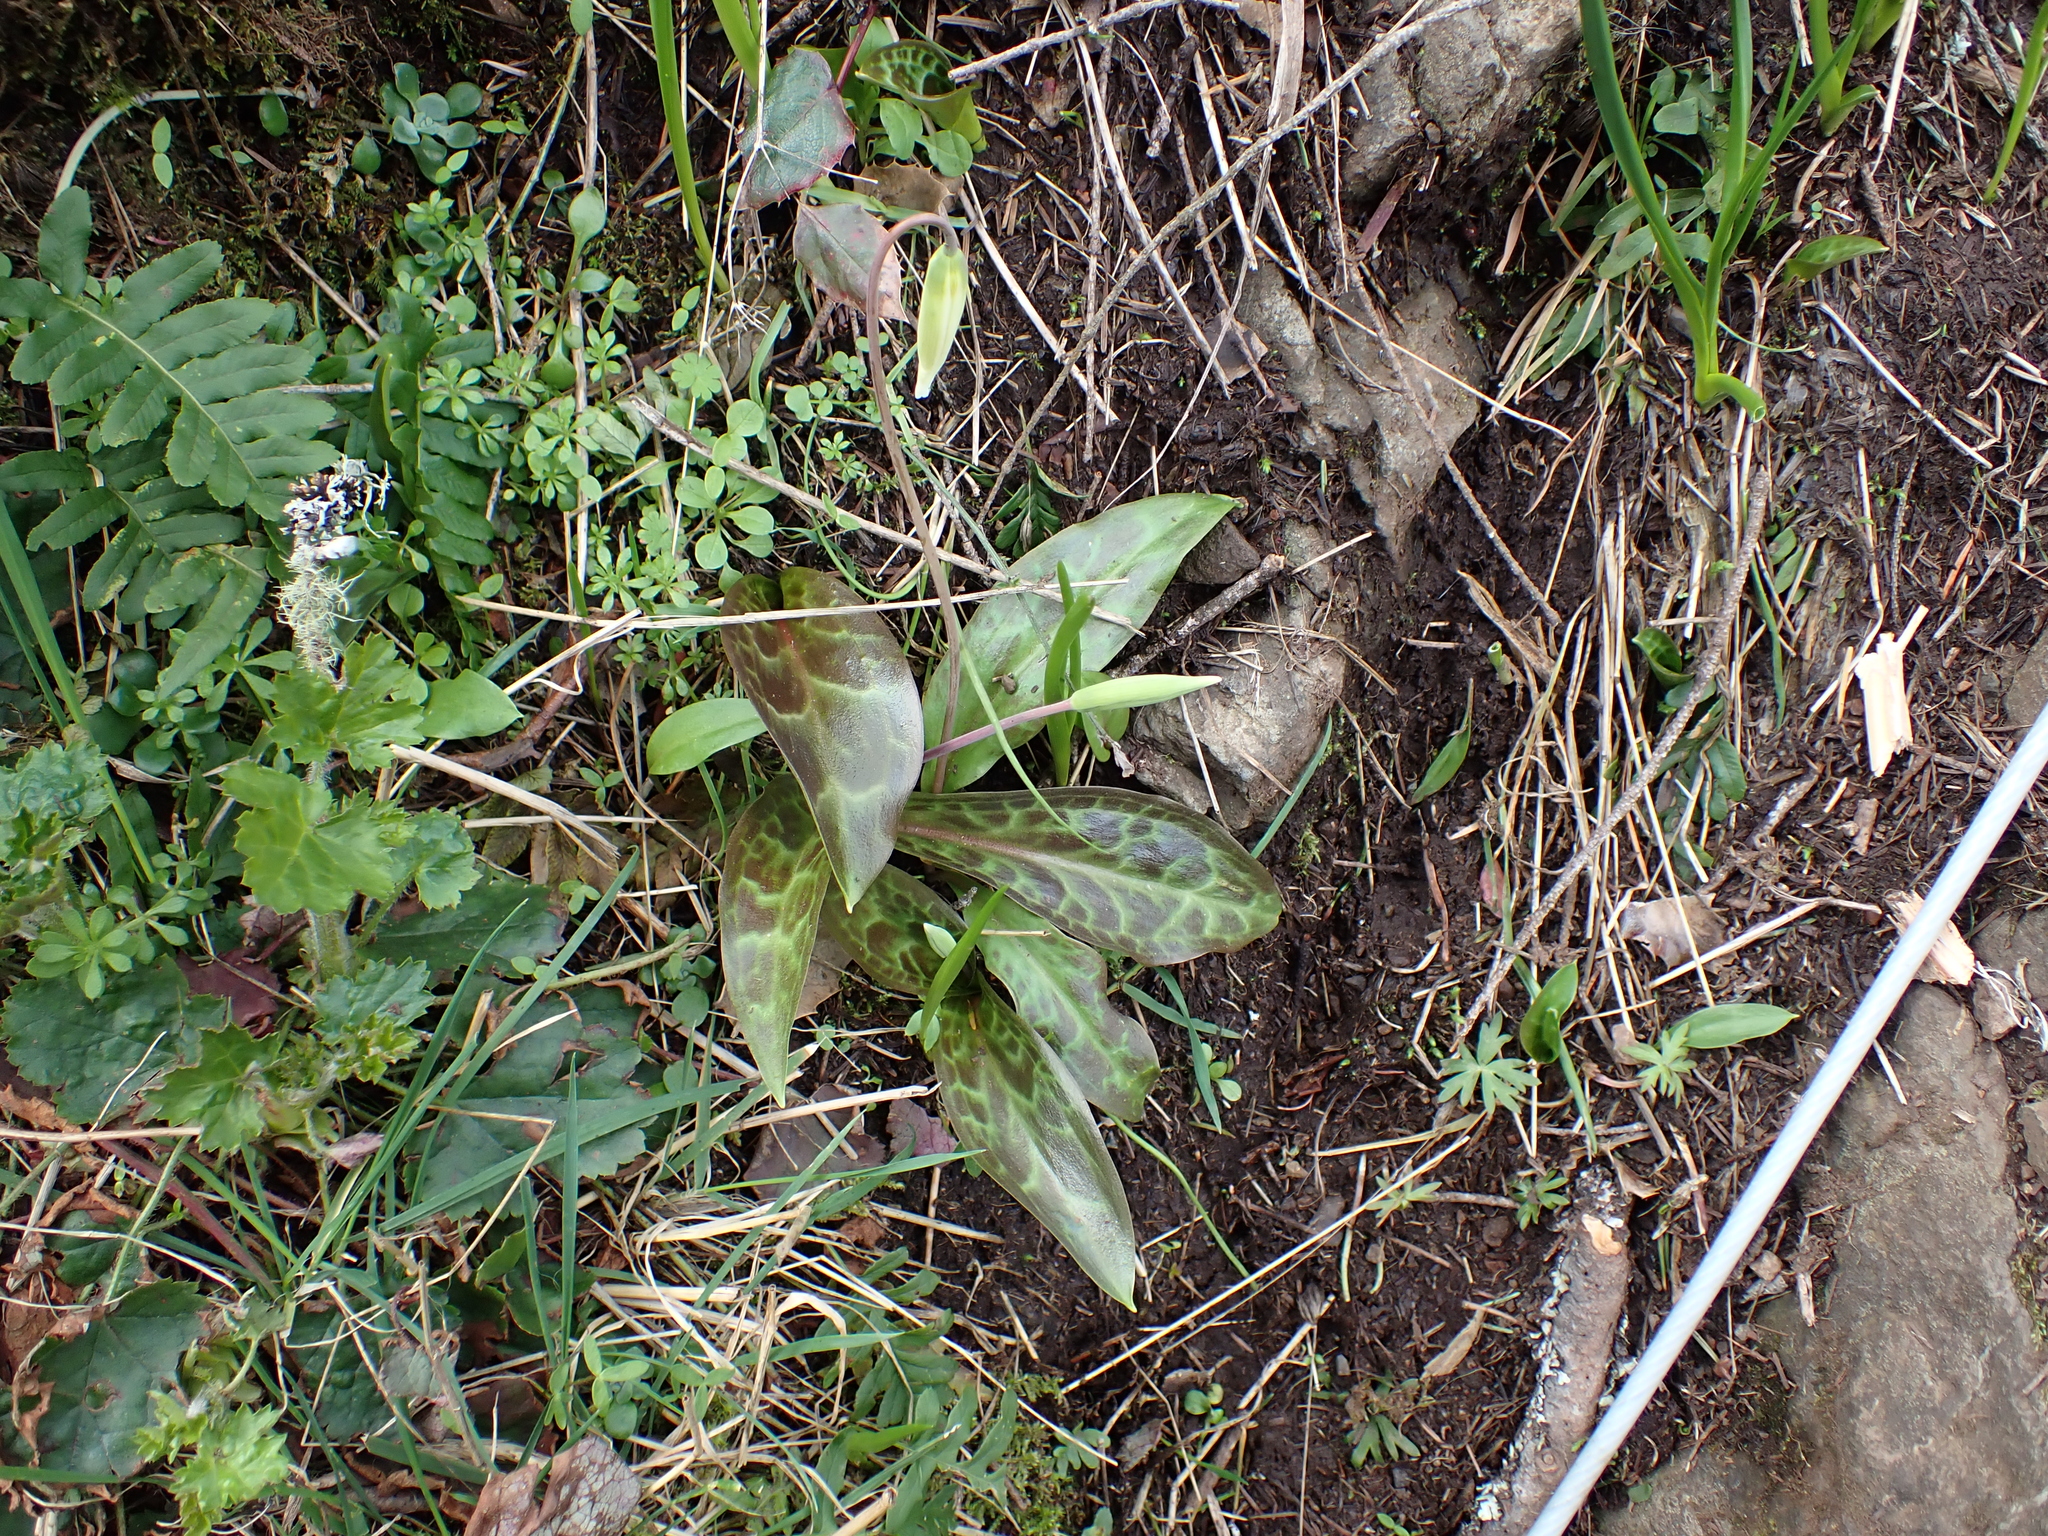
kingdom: Plantae
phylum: Tracheophyta
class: Liliopsida
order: Liliales
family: Liliaceae
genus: Erythronium
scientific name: Erythronium oregonum
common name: Giant adder's-tongue
